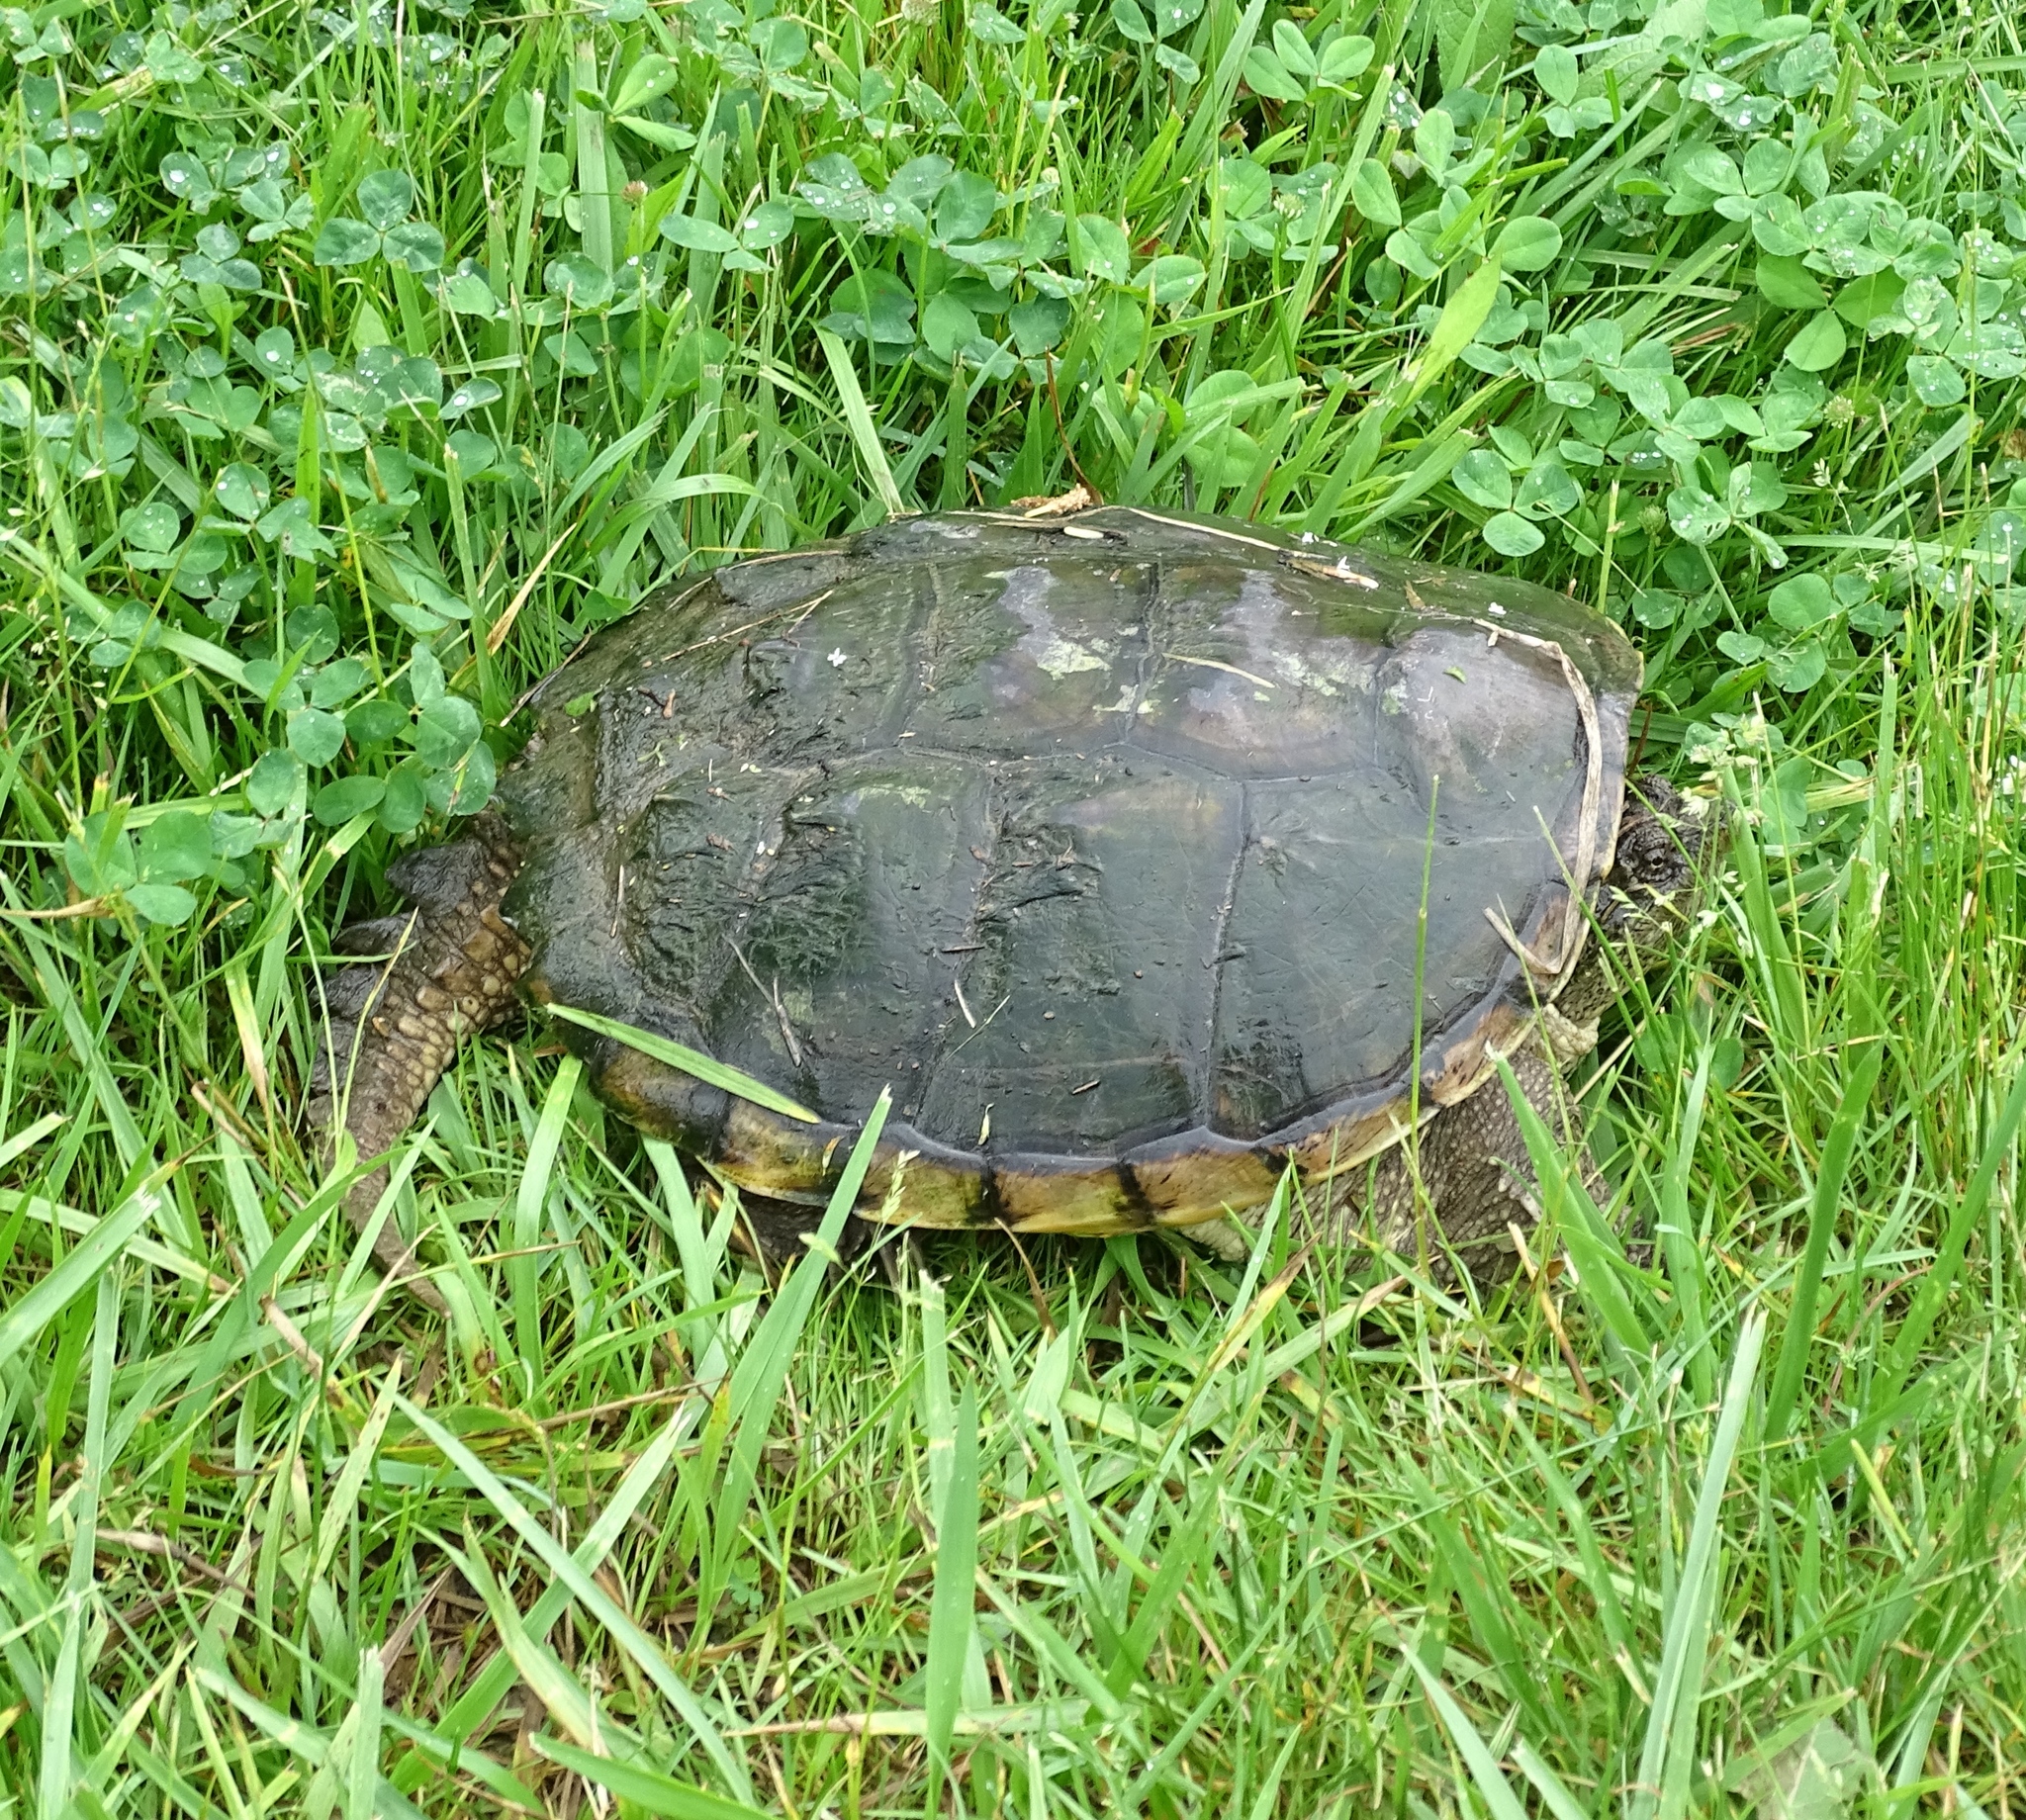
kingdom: Animalia
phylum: Chordata
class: Testudines
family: Chelydridae
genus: Chelydra
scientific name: Chelydra serpentina
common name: Common snapping turtle
